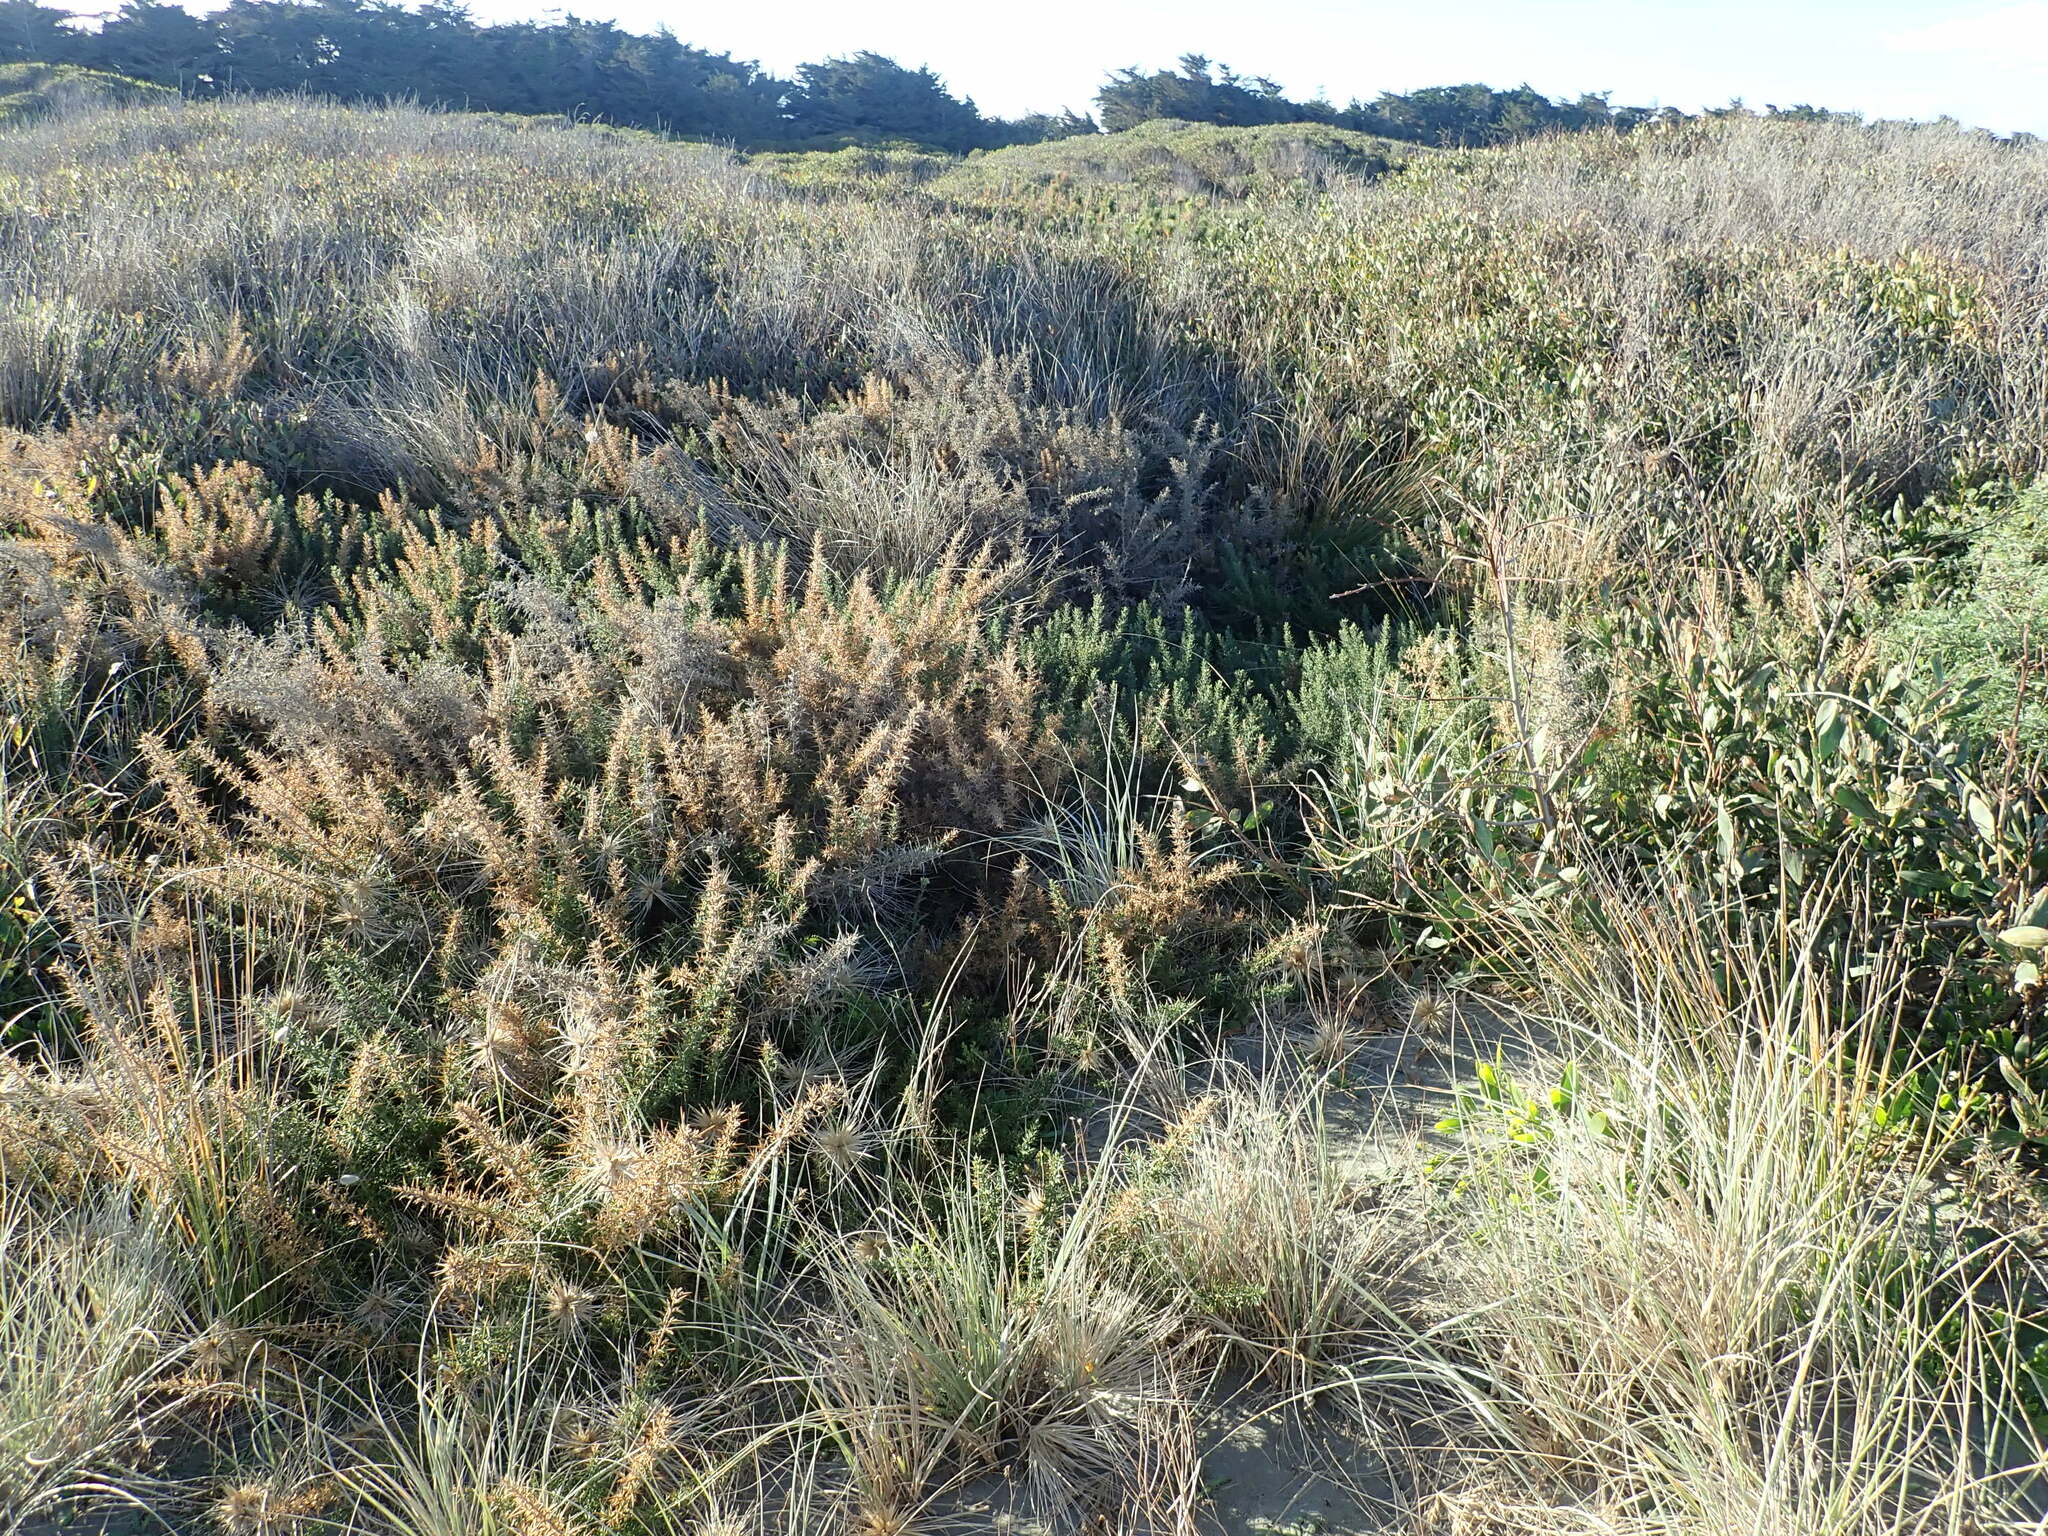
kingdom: Plantae
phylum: Tracheophyta
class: Magnoliopsida
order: Fabales
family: Fabaceae
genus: Ulex
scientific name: Ulex europaeus
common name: Common gorse
